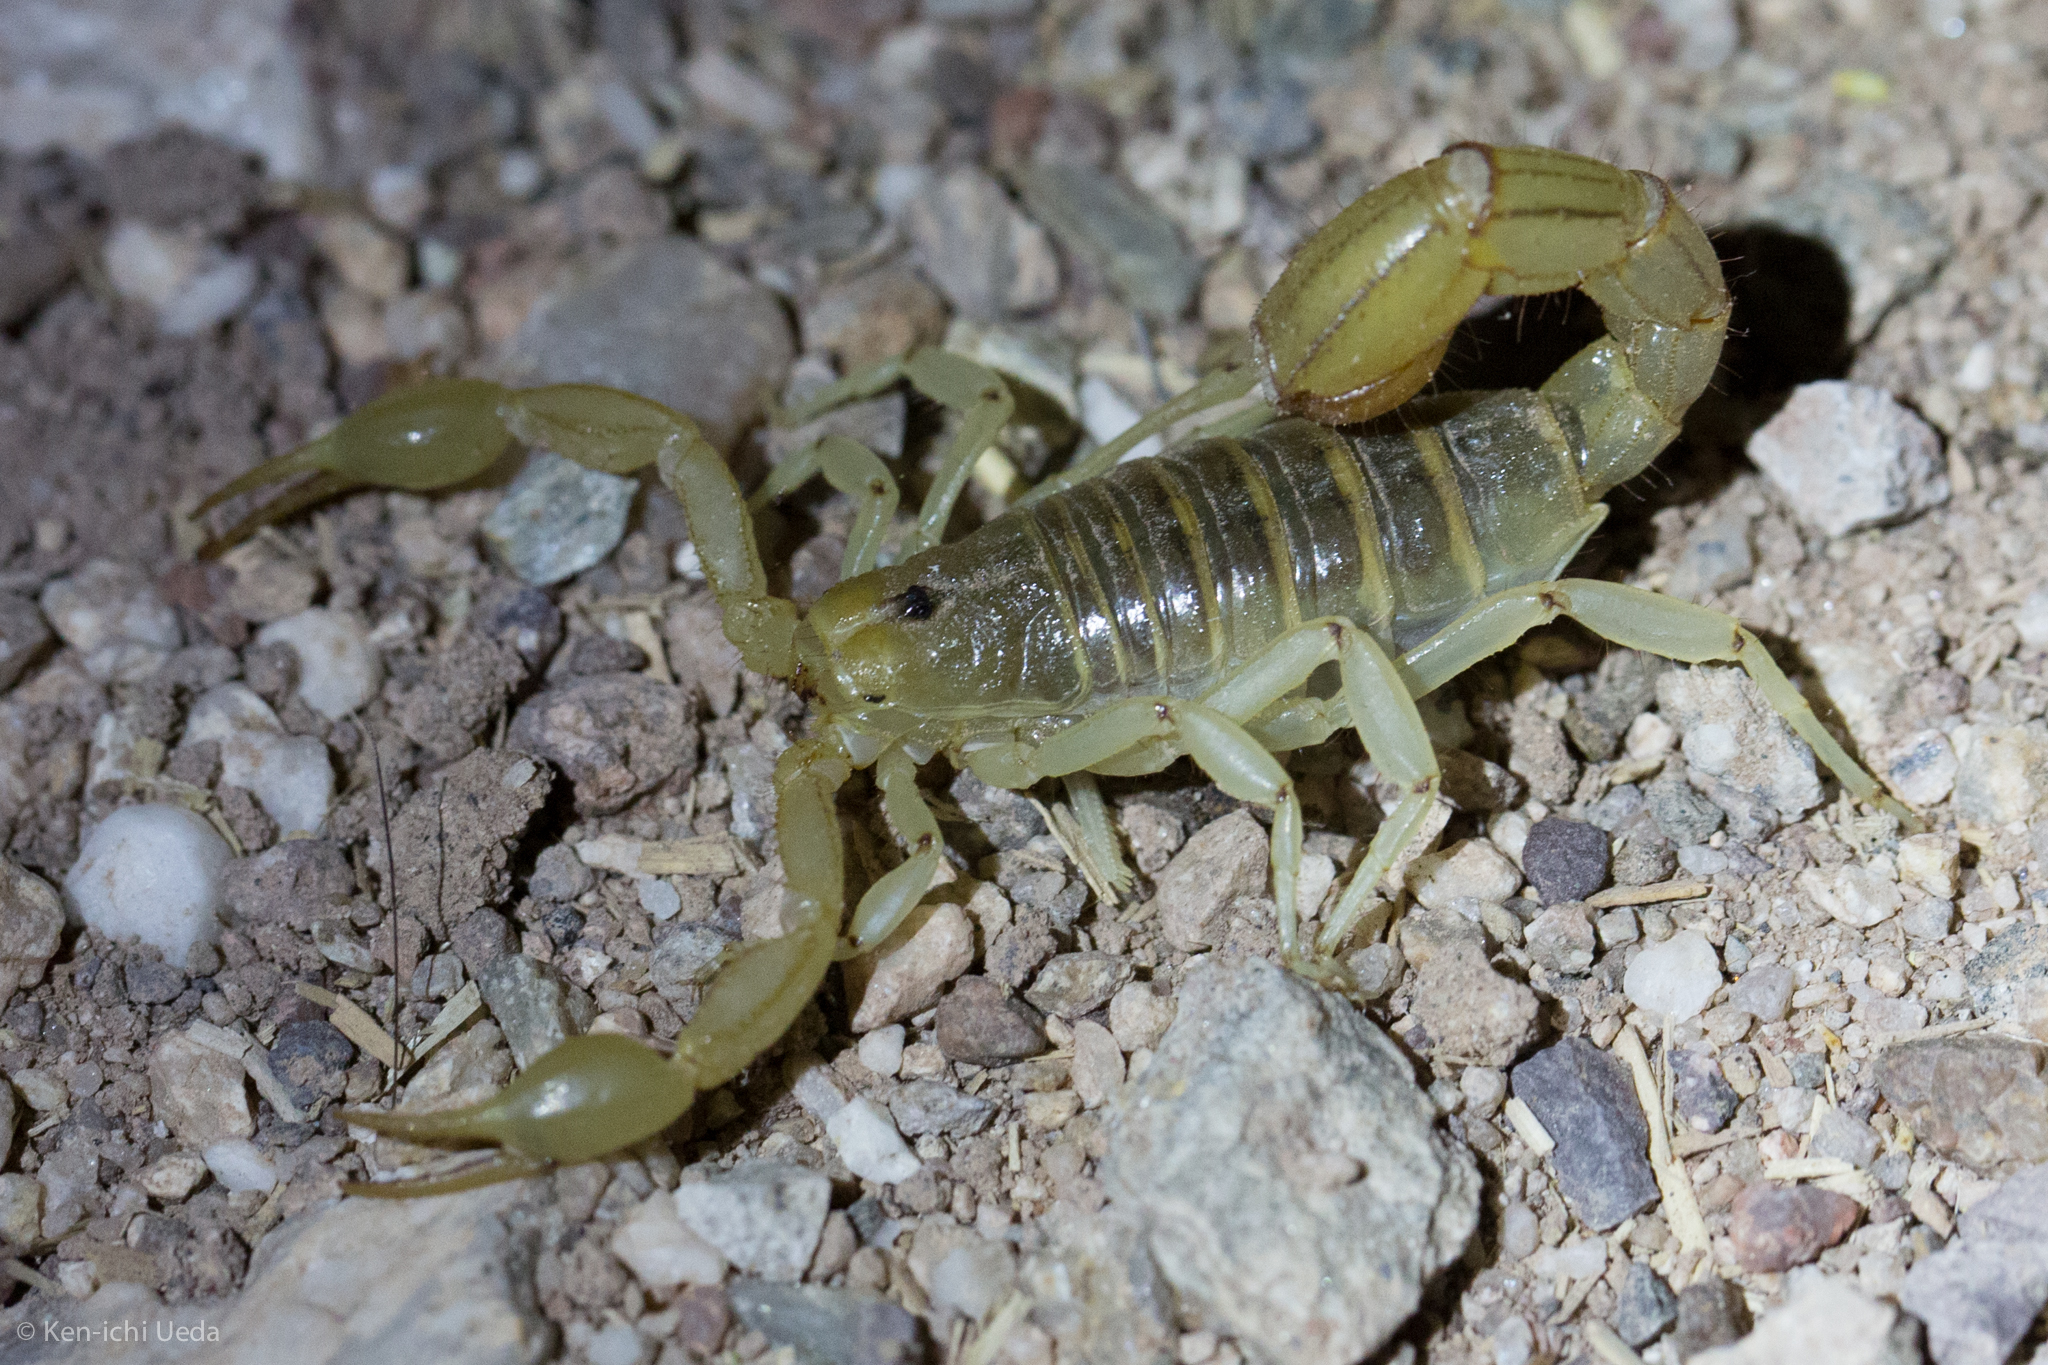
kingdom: Animalia
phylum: Arthropoda
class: Arachnida
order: Scorpiones
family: Vaejovidae
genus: Paravaejovis
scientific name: Paravaejovis spinigerus
